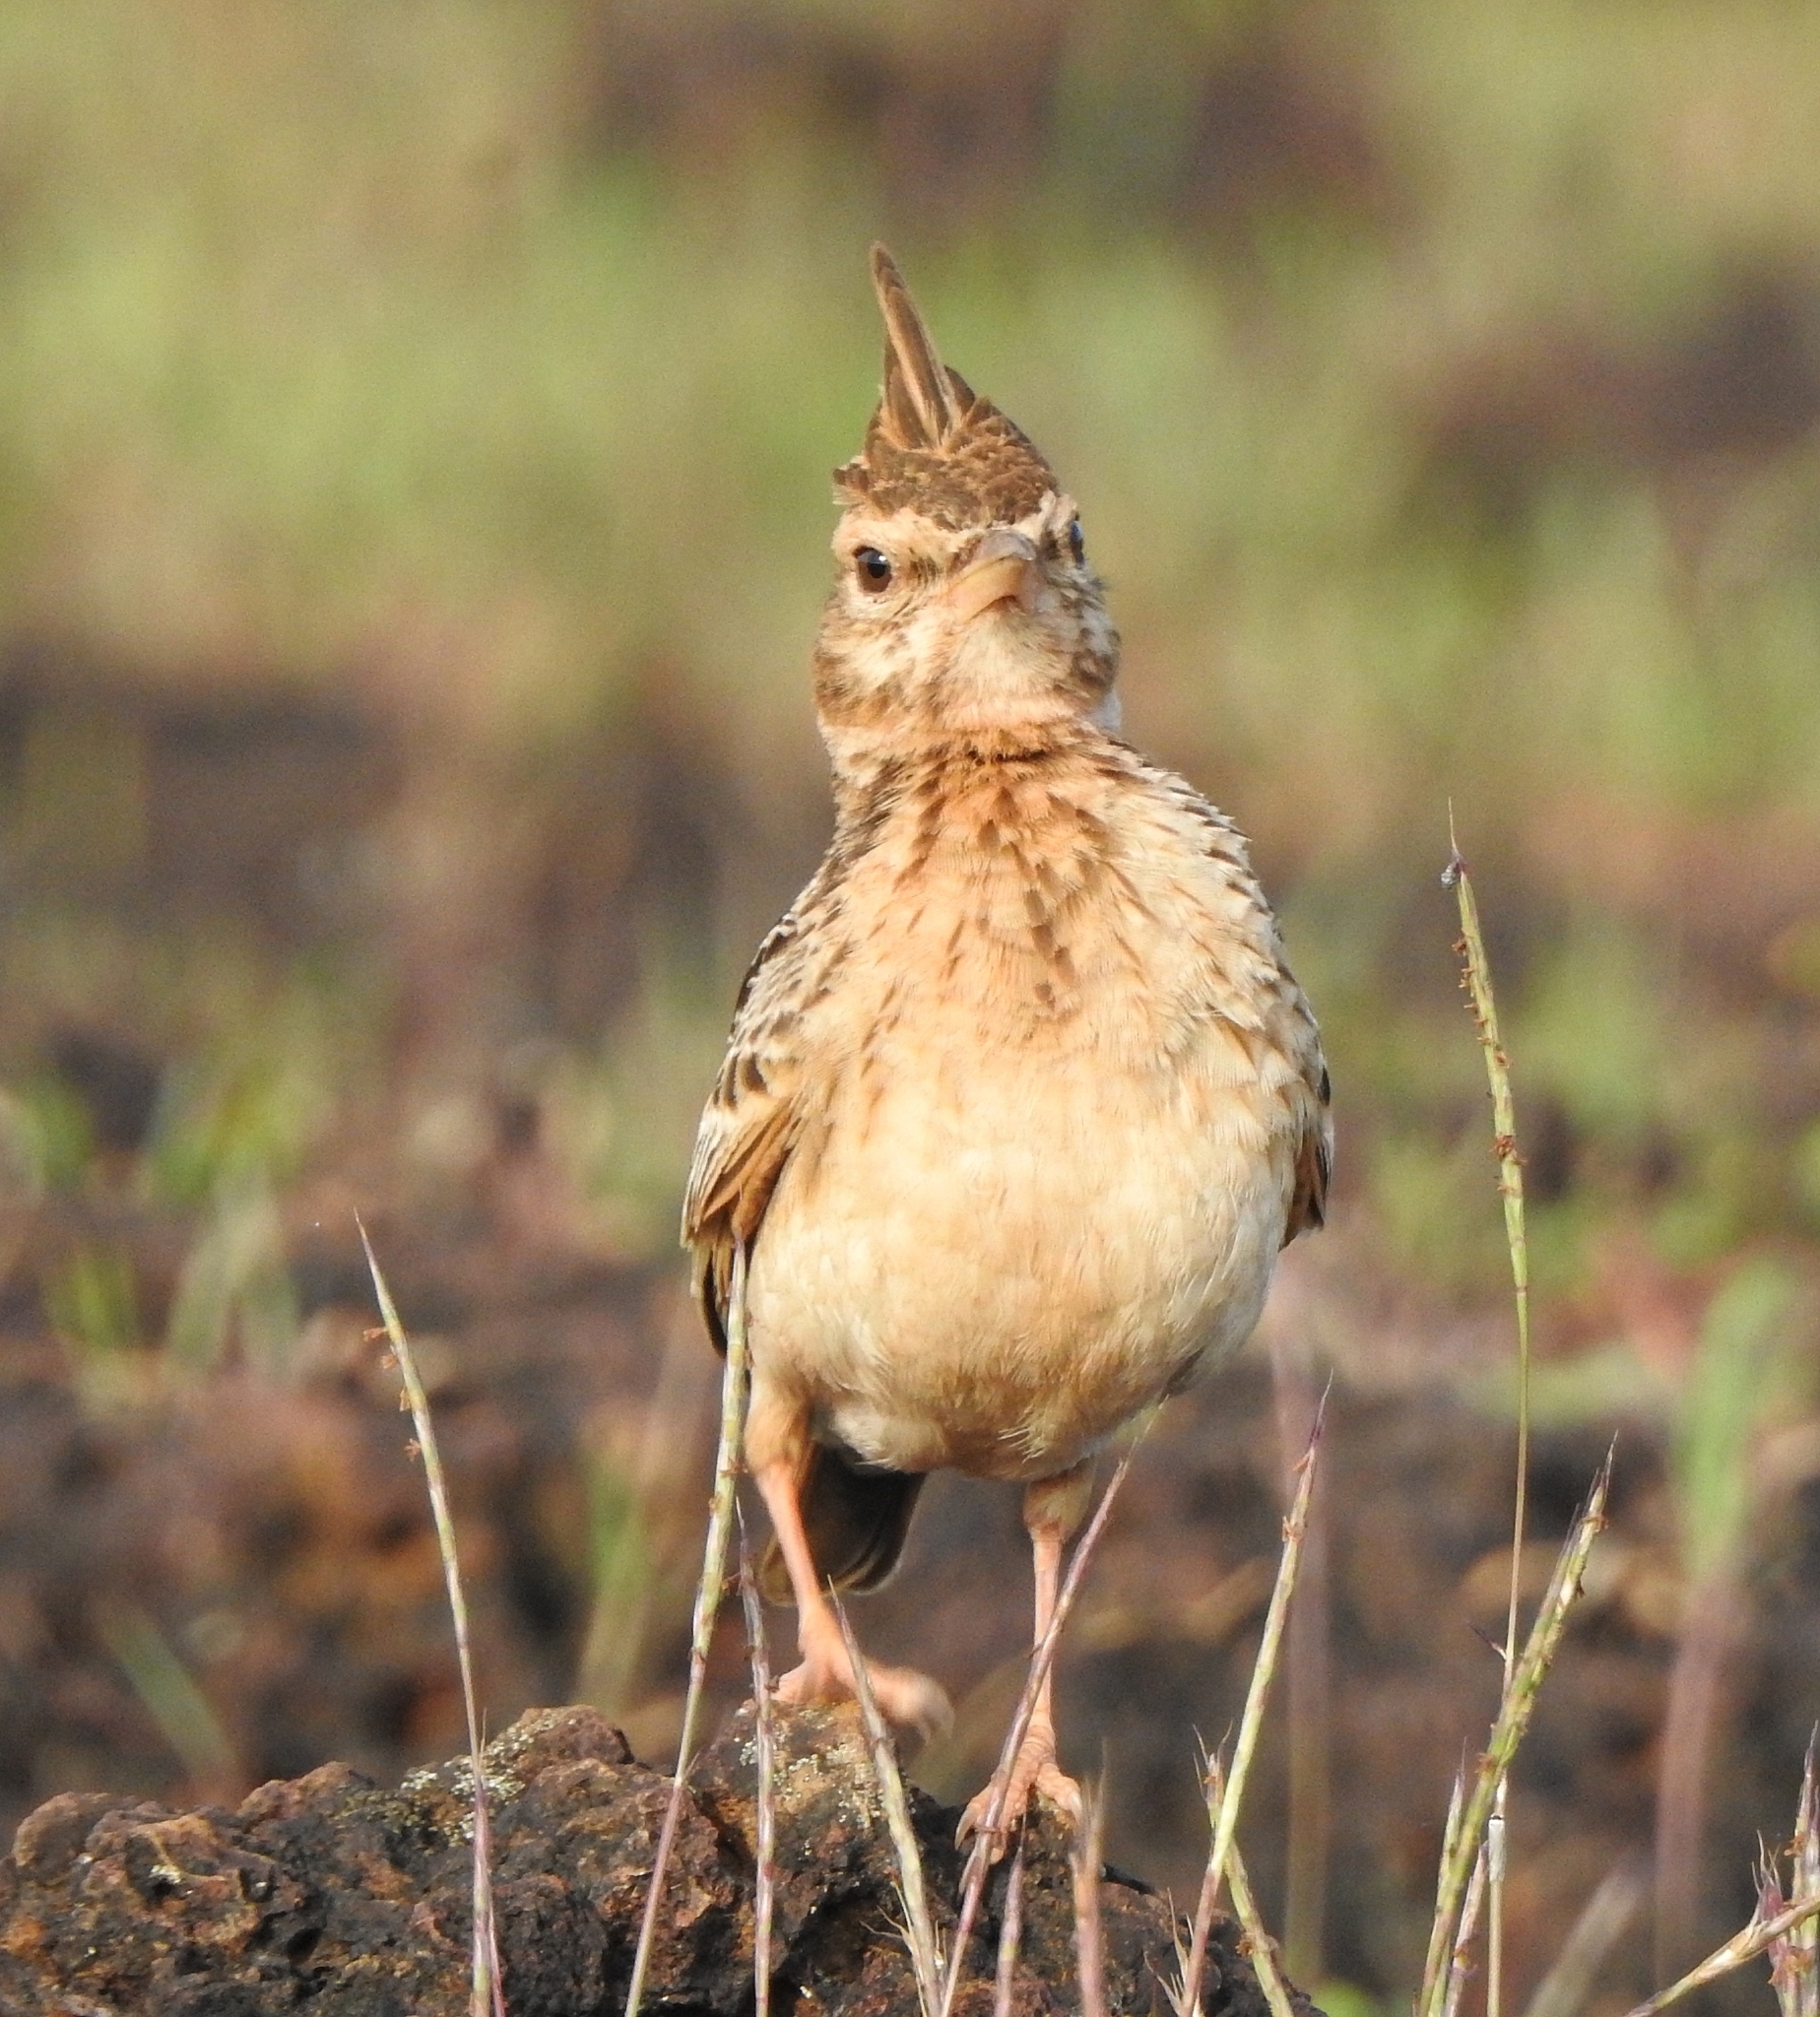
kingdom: Animalia
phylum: Chordata
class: Aves
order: Passeriformes
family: Alaudidae
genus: Galerida
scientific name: Galerida malabarica
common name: Malabar lark
